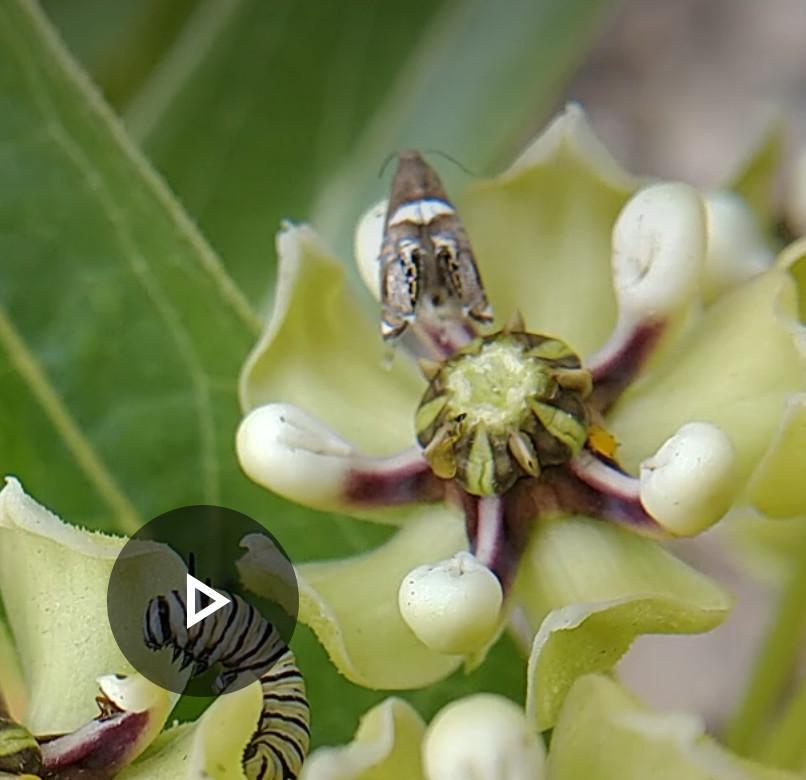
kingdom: Animalia
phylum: Arthropoda
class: Insecta
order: Lepidoptera
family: Glyphipterigidae
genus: Glyphipterix
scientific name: Glyphipterix circumscriptella
